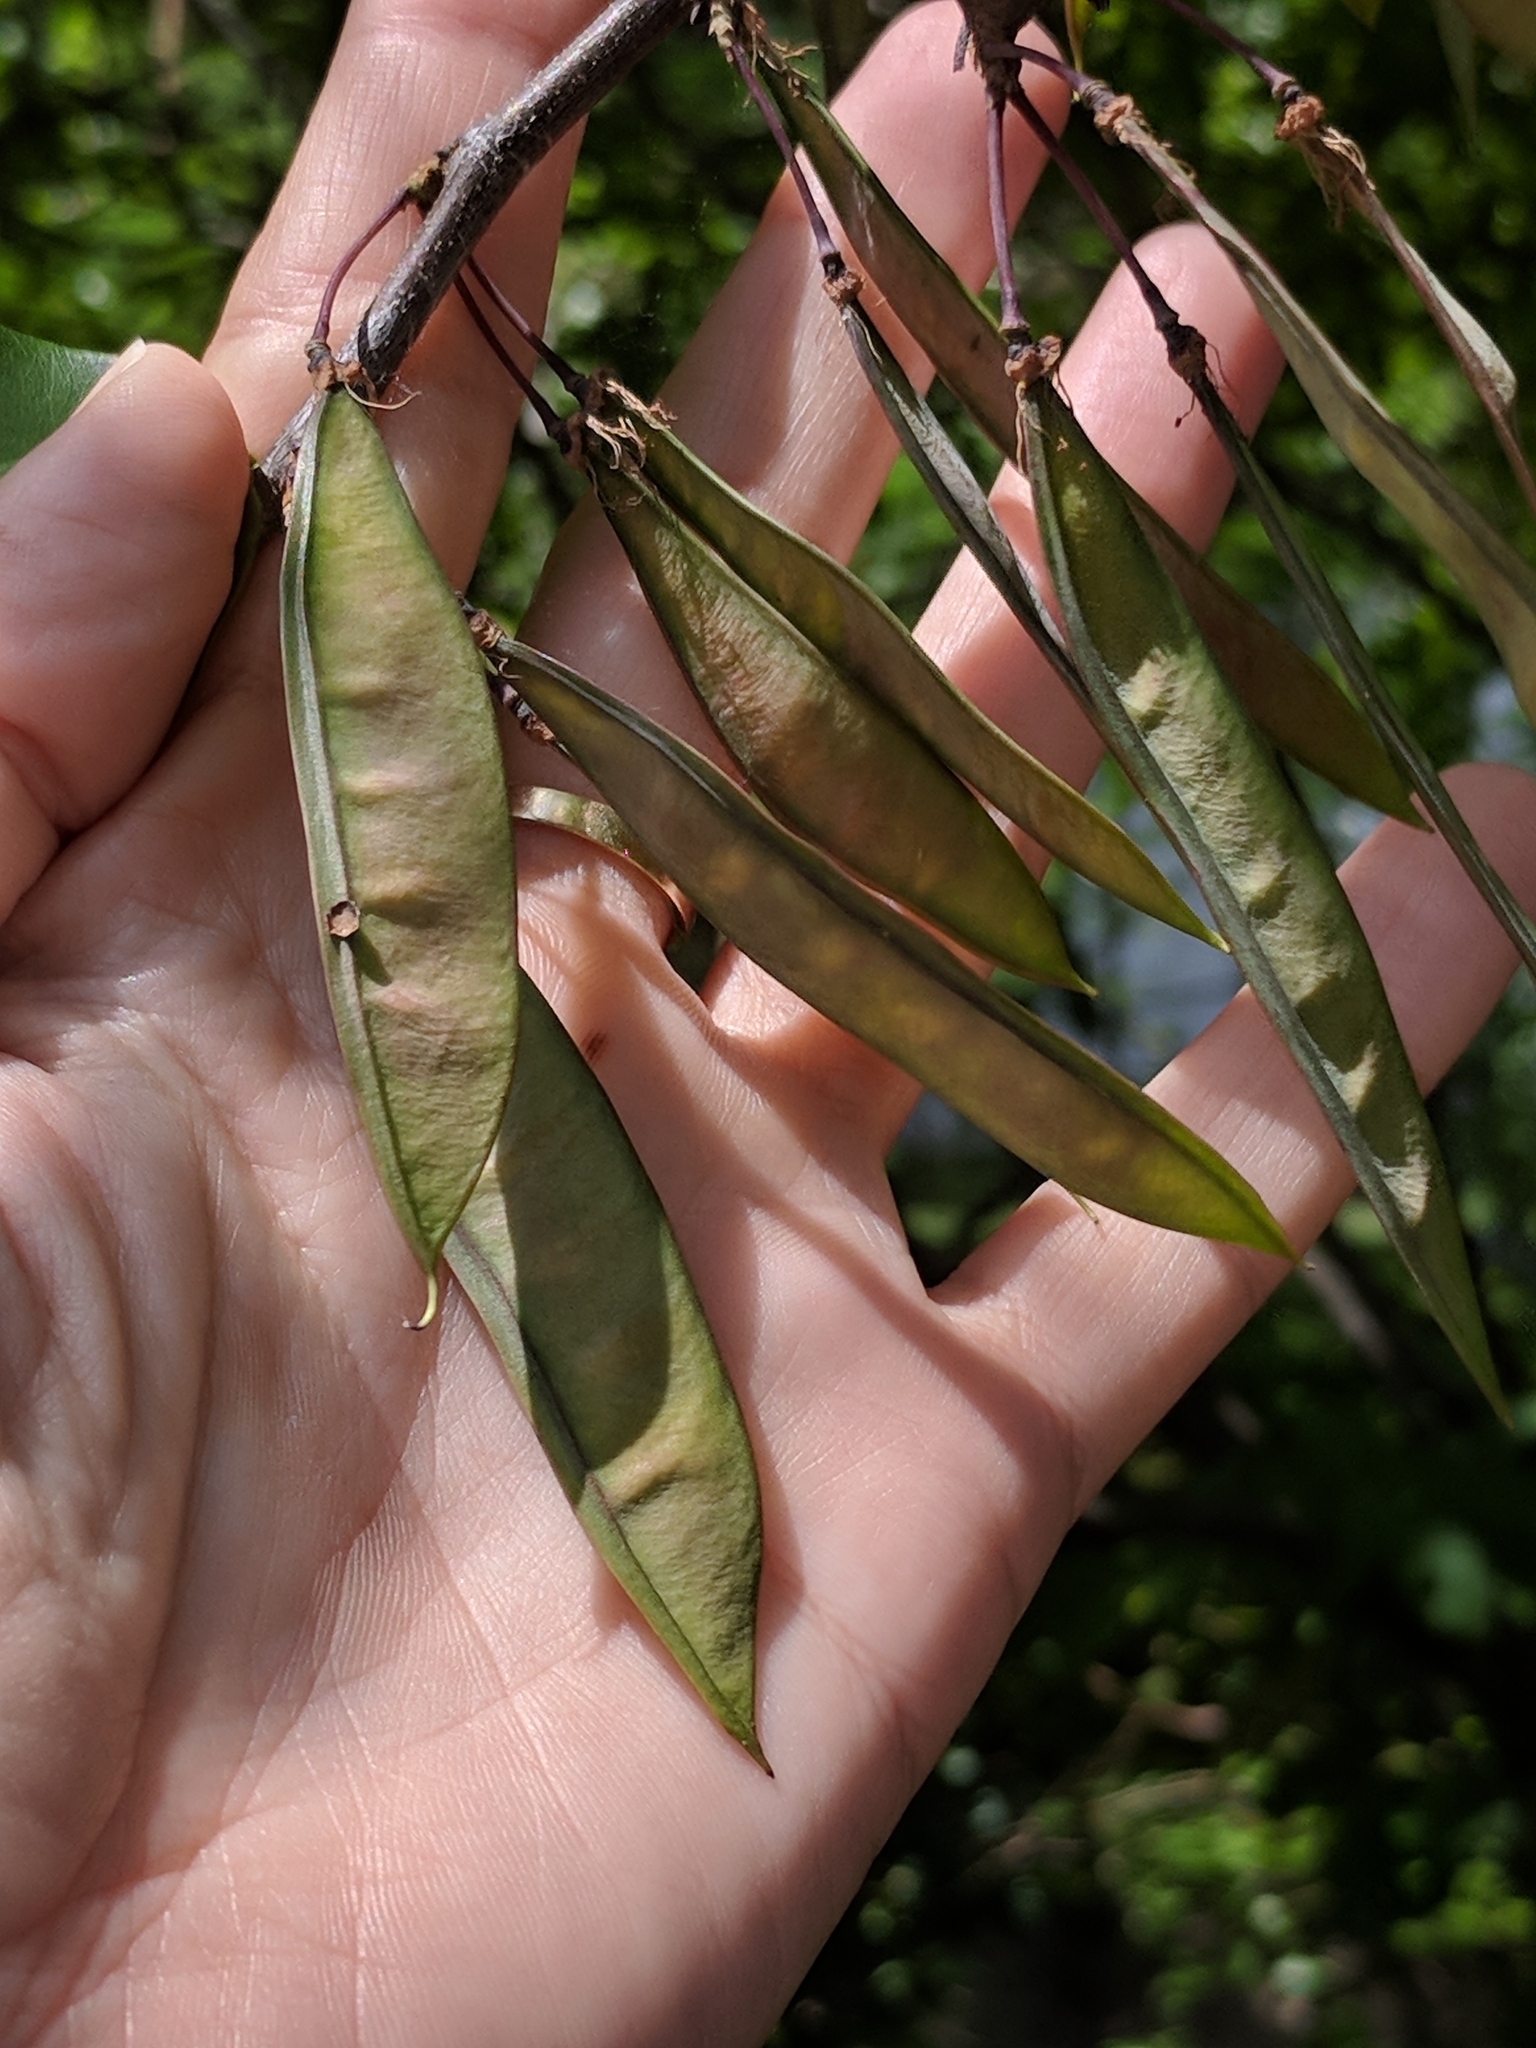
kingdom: Plantae
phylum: Tracheophyta
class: Magnoliopsida
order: Fabales
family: Fabaceae
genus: Cercis
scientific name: Cercis canadensis
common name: Eastern redbud
